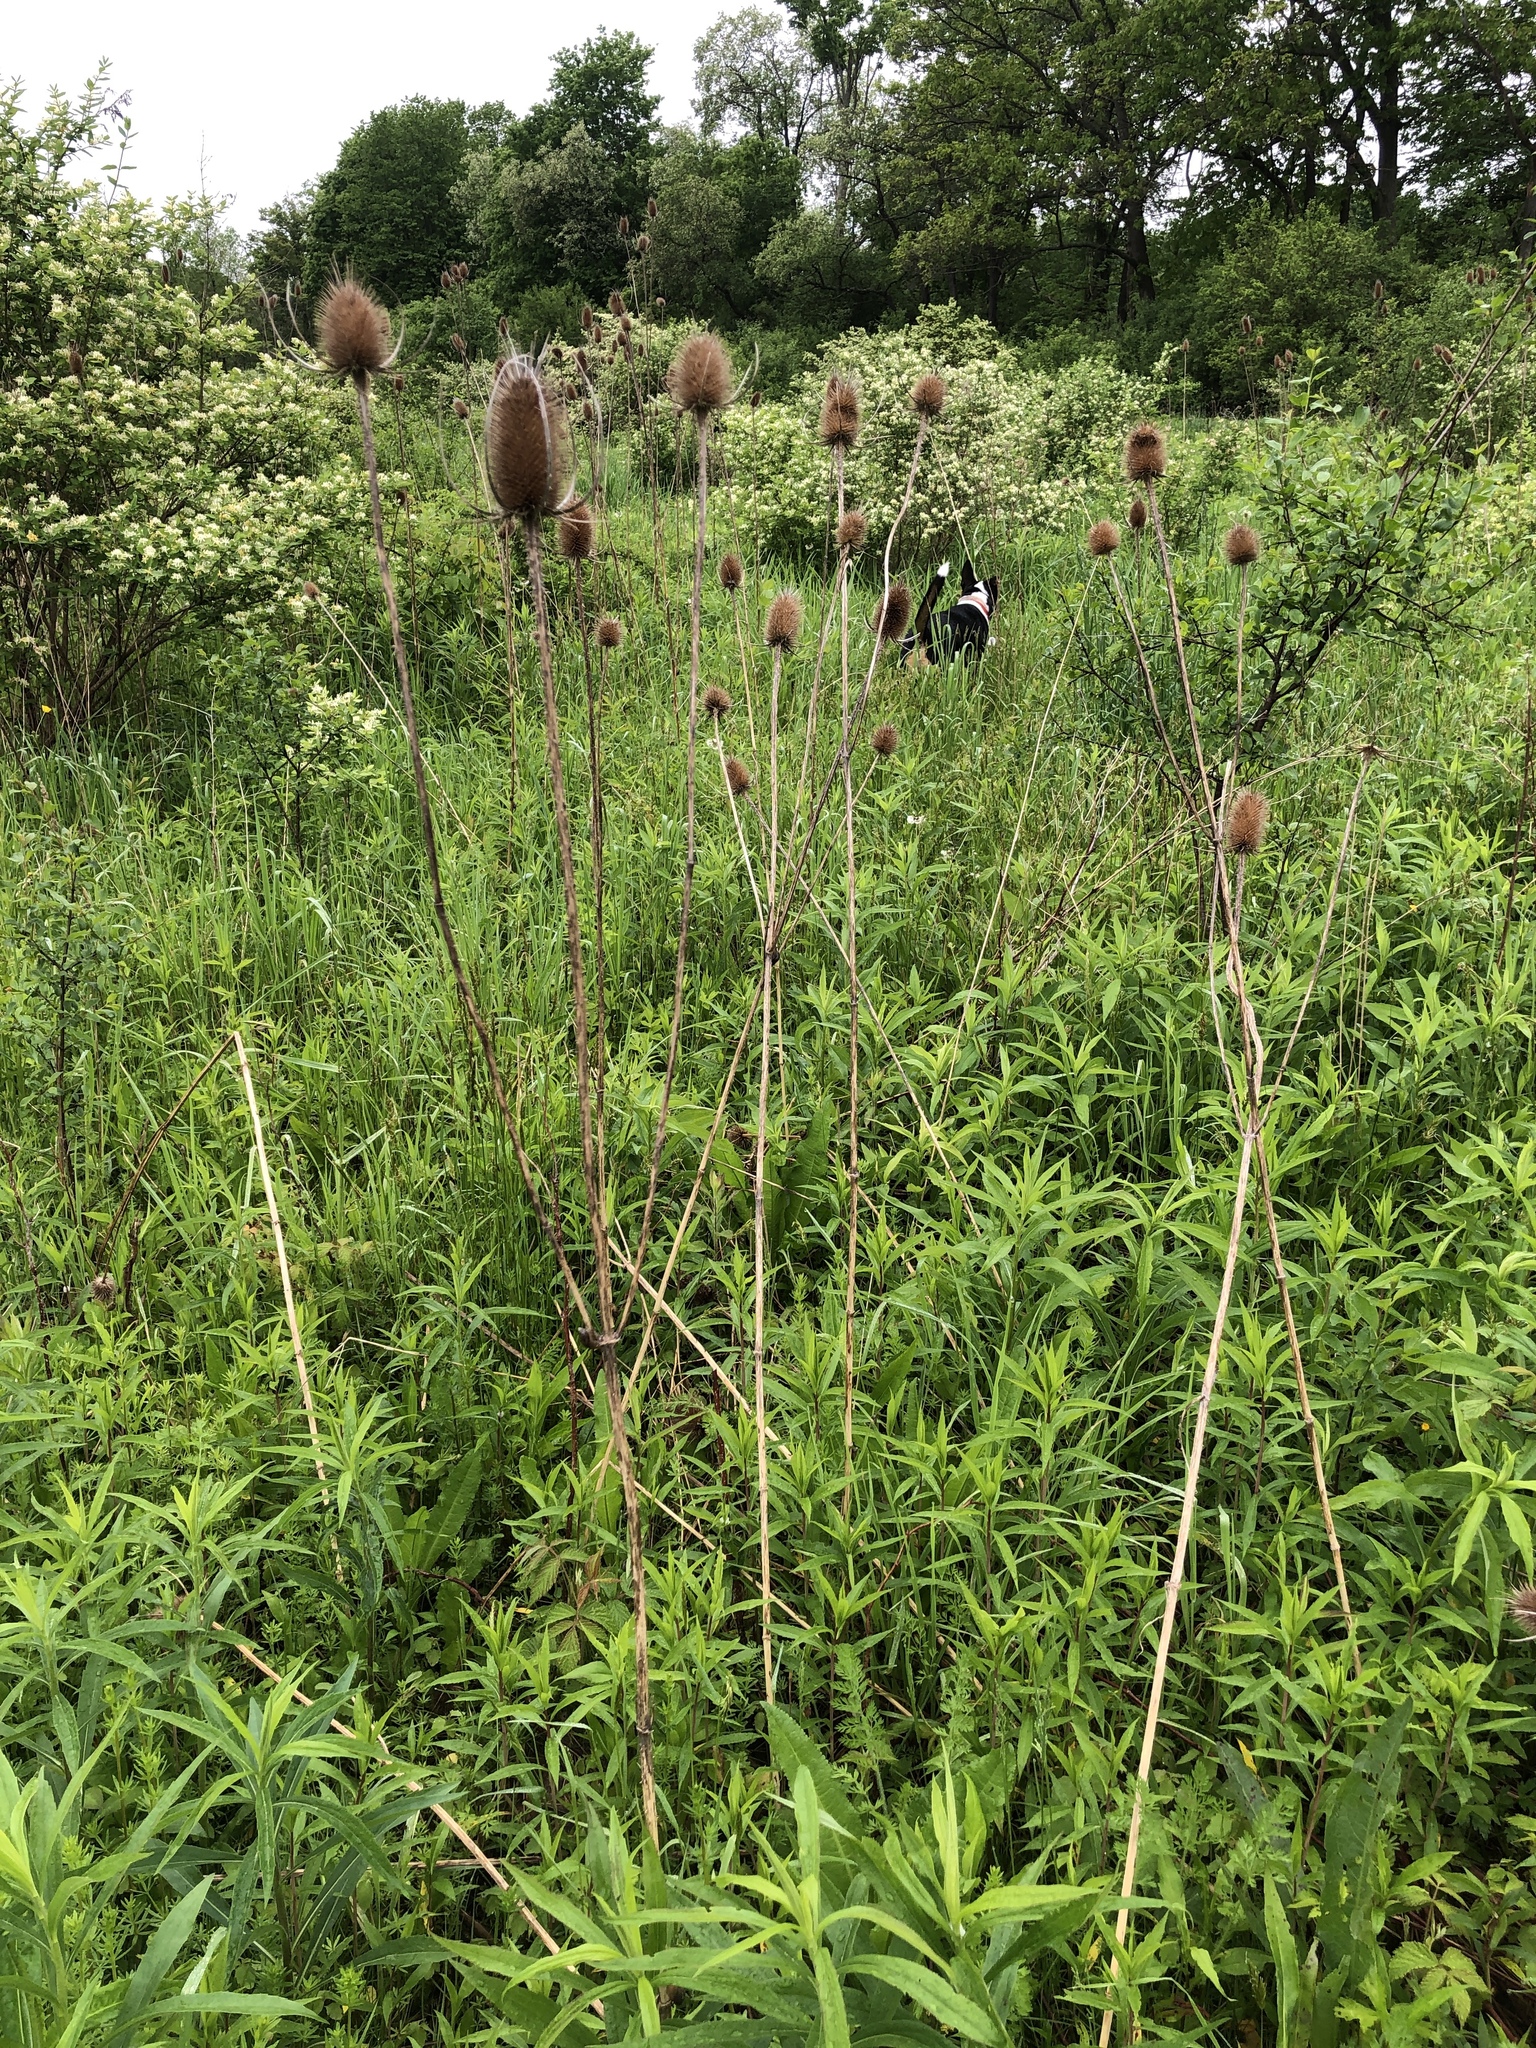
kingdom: Plantae
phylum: Tracheophyta
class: Magnoliopsida
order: Dipsacales
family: Caprifoliaceae
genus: Dipsacus
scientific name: Dipsacus fullonum
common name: Teasel
